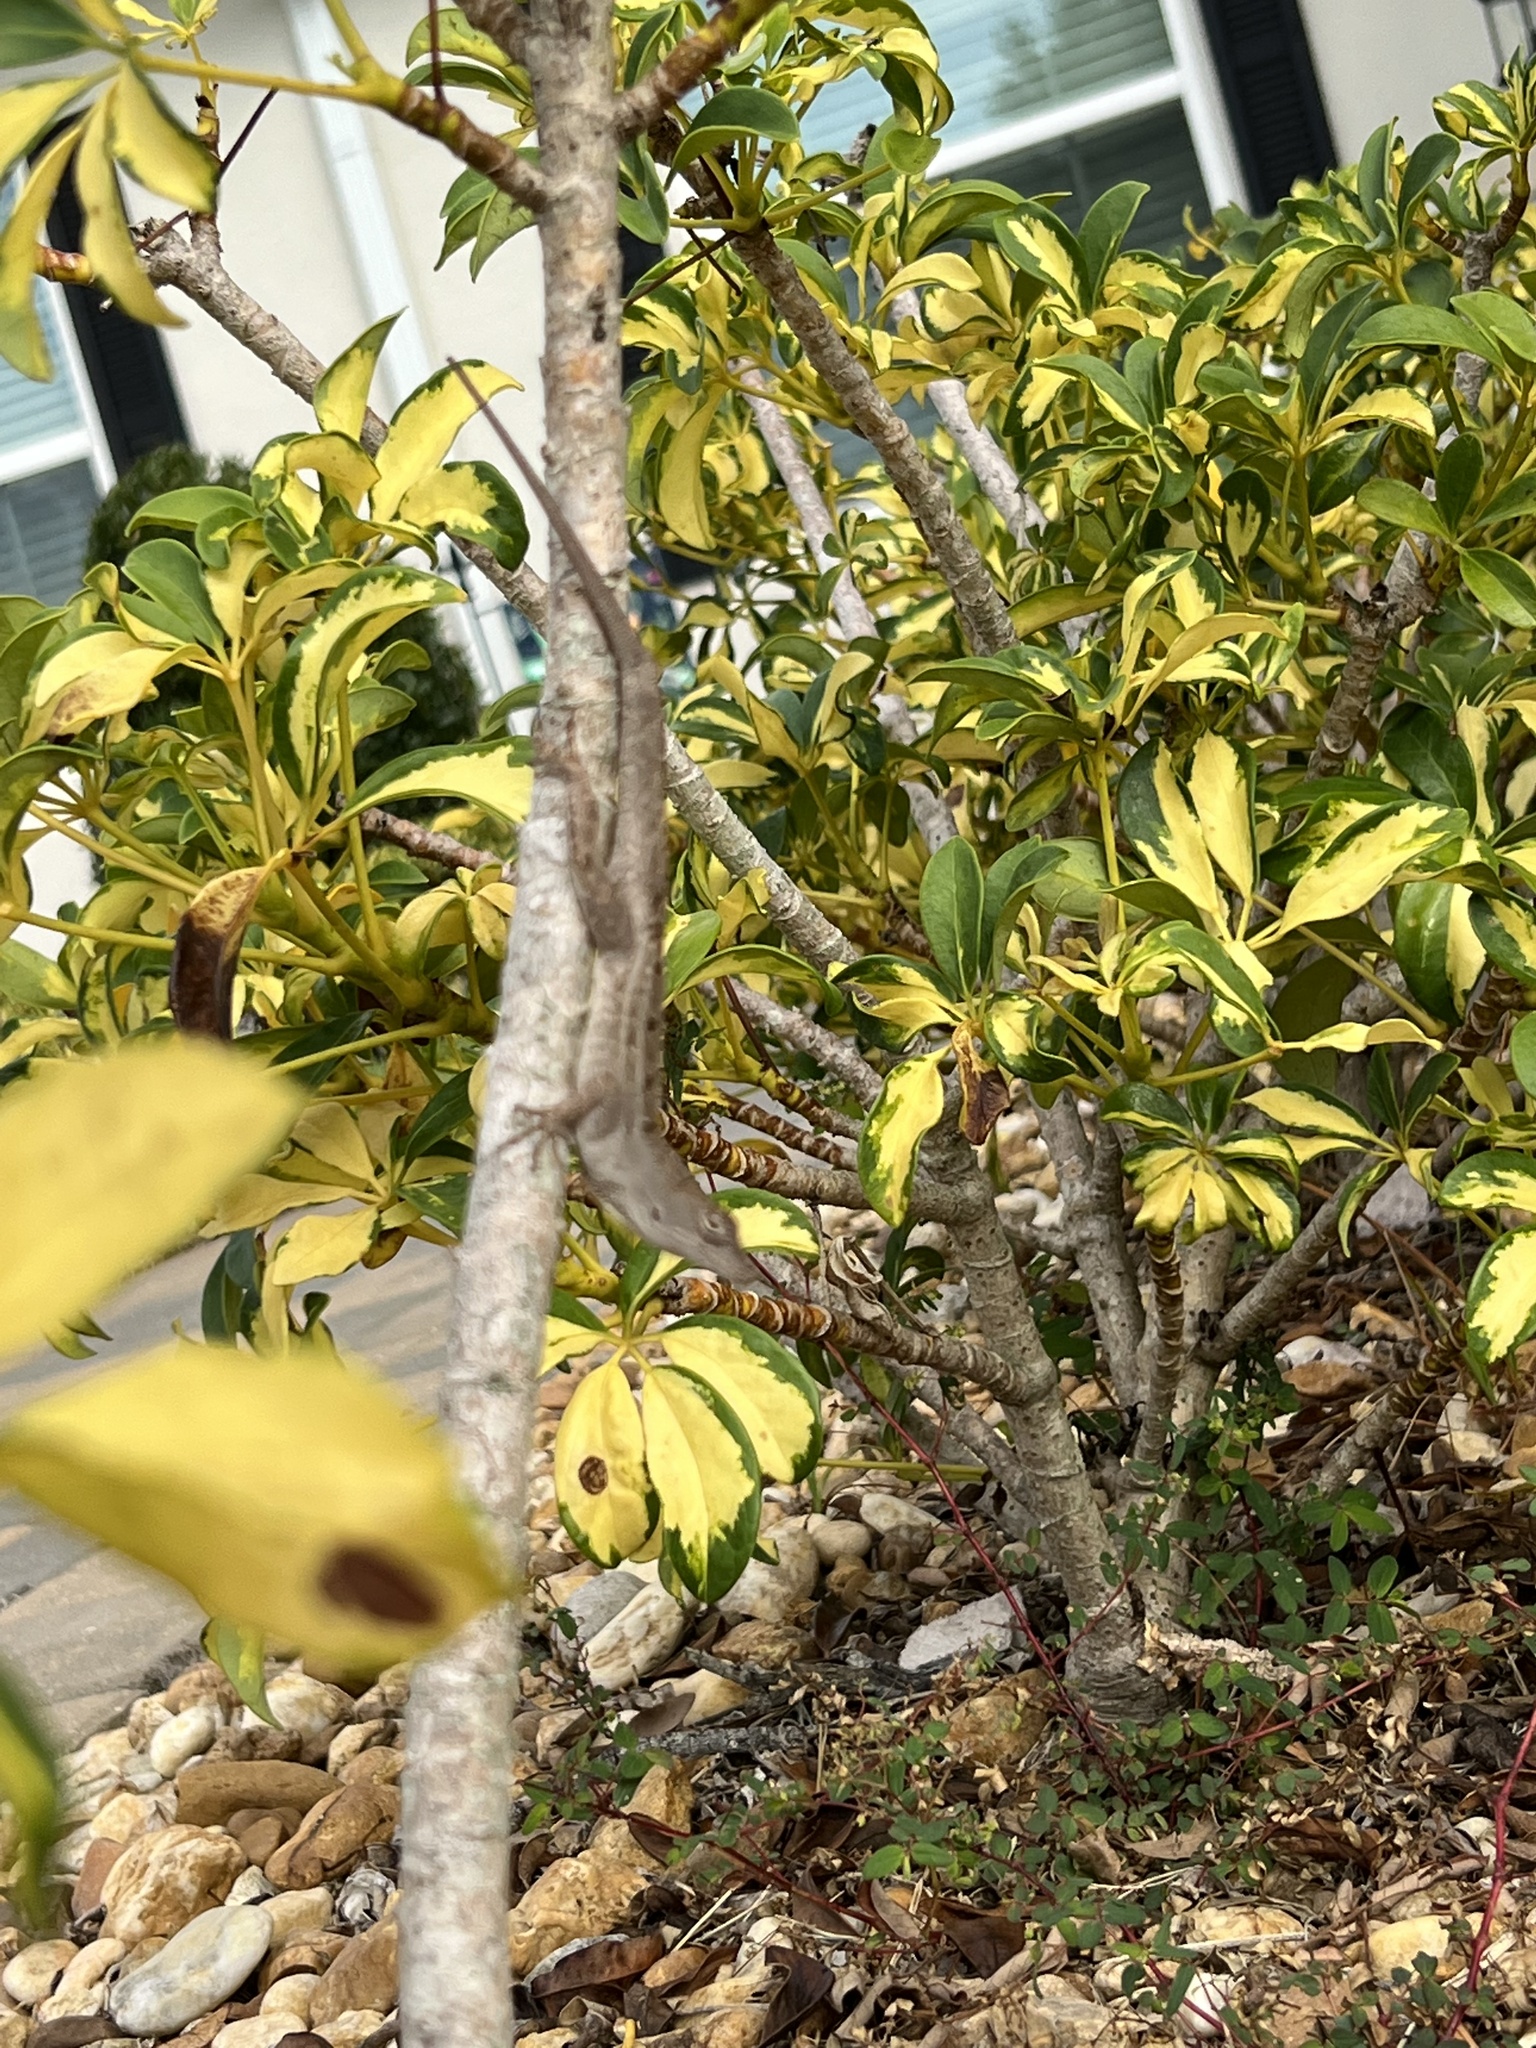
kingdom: Animalia
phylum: Chordata
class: Squamata
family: Dactyloidae
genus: Anolis
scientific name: Anolis sagrei
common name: Brown anole
